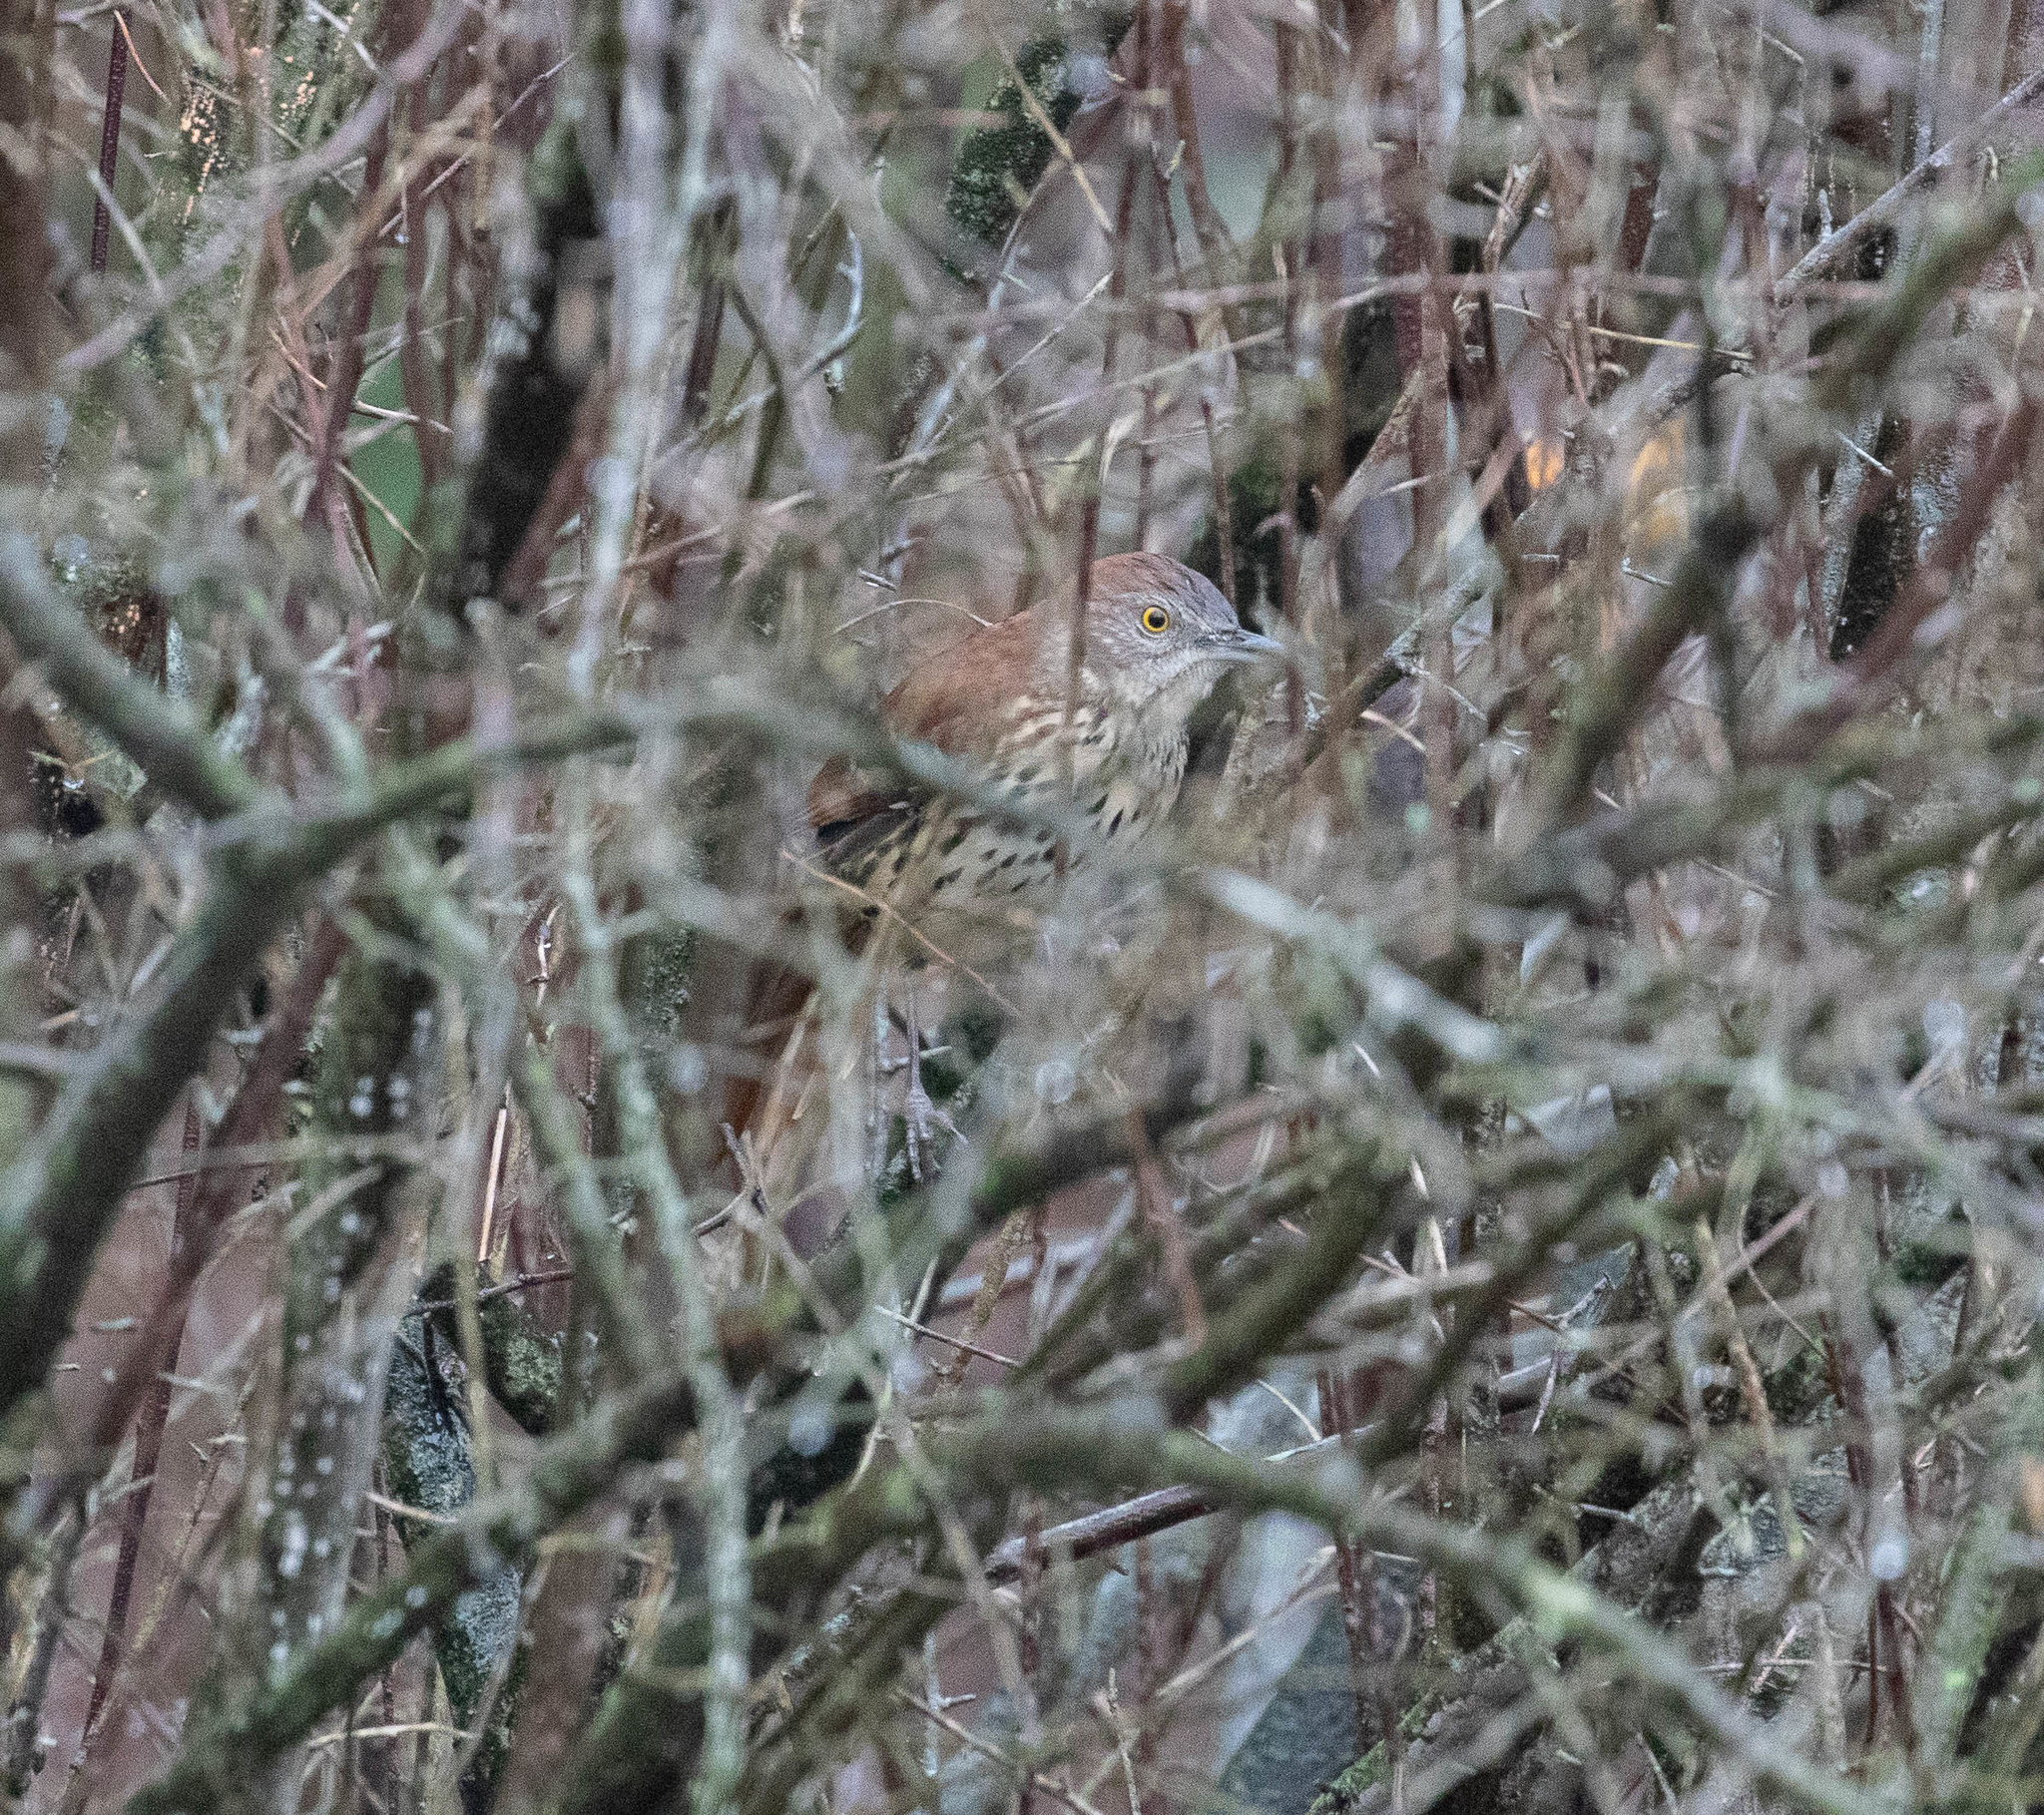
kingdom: Animalia
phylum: Chordata
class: Aves
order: Passeriformes
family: Mimidae
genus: Toxostoma
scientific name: Toxostoma rufum
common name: Brown thrasher
